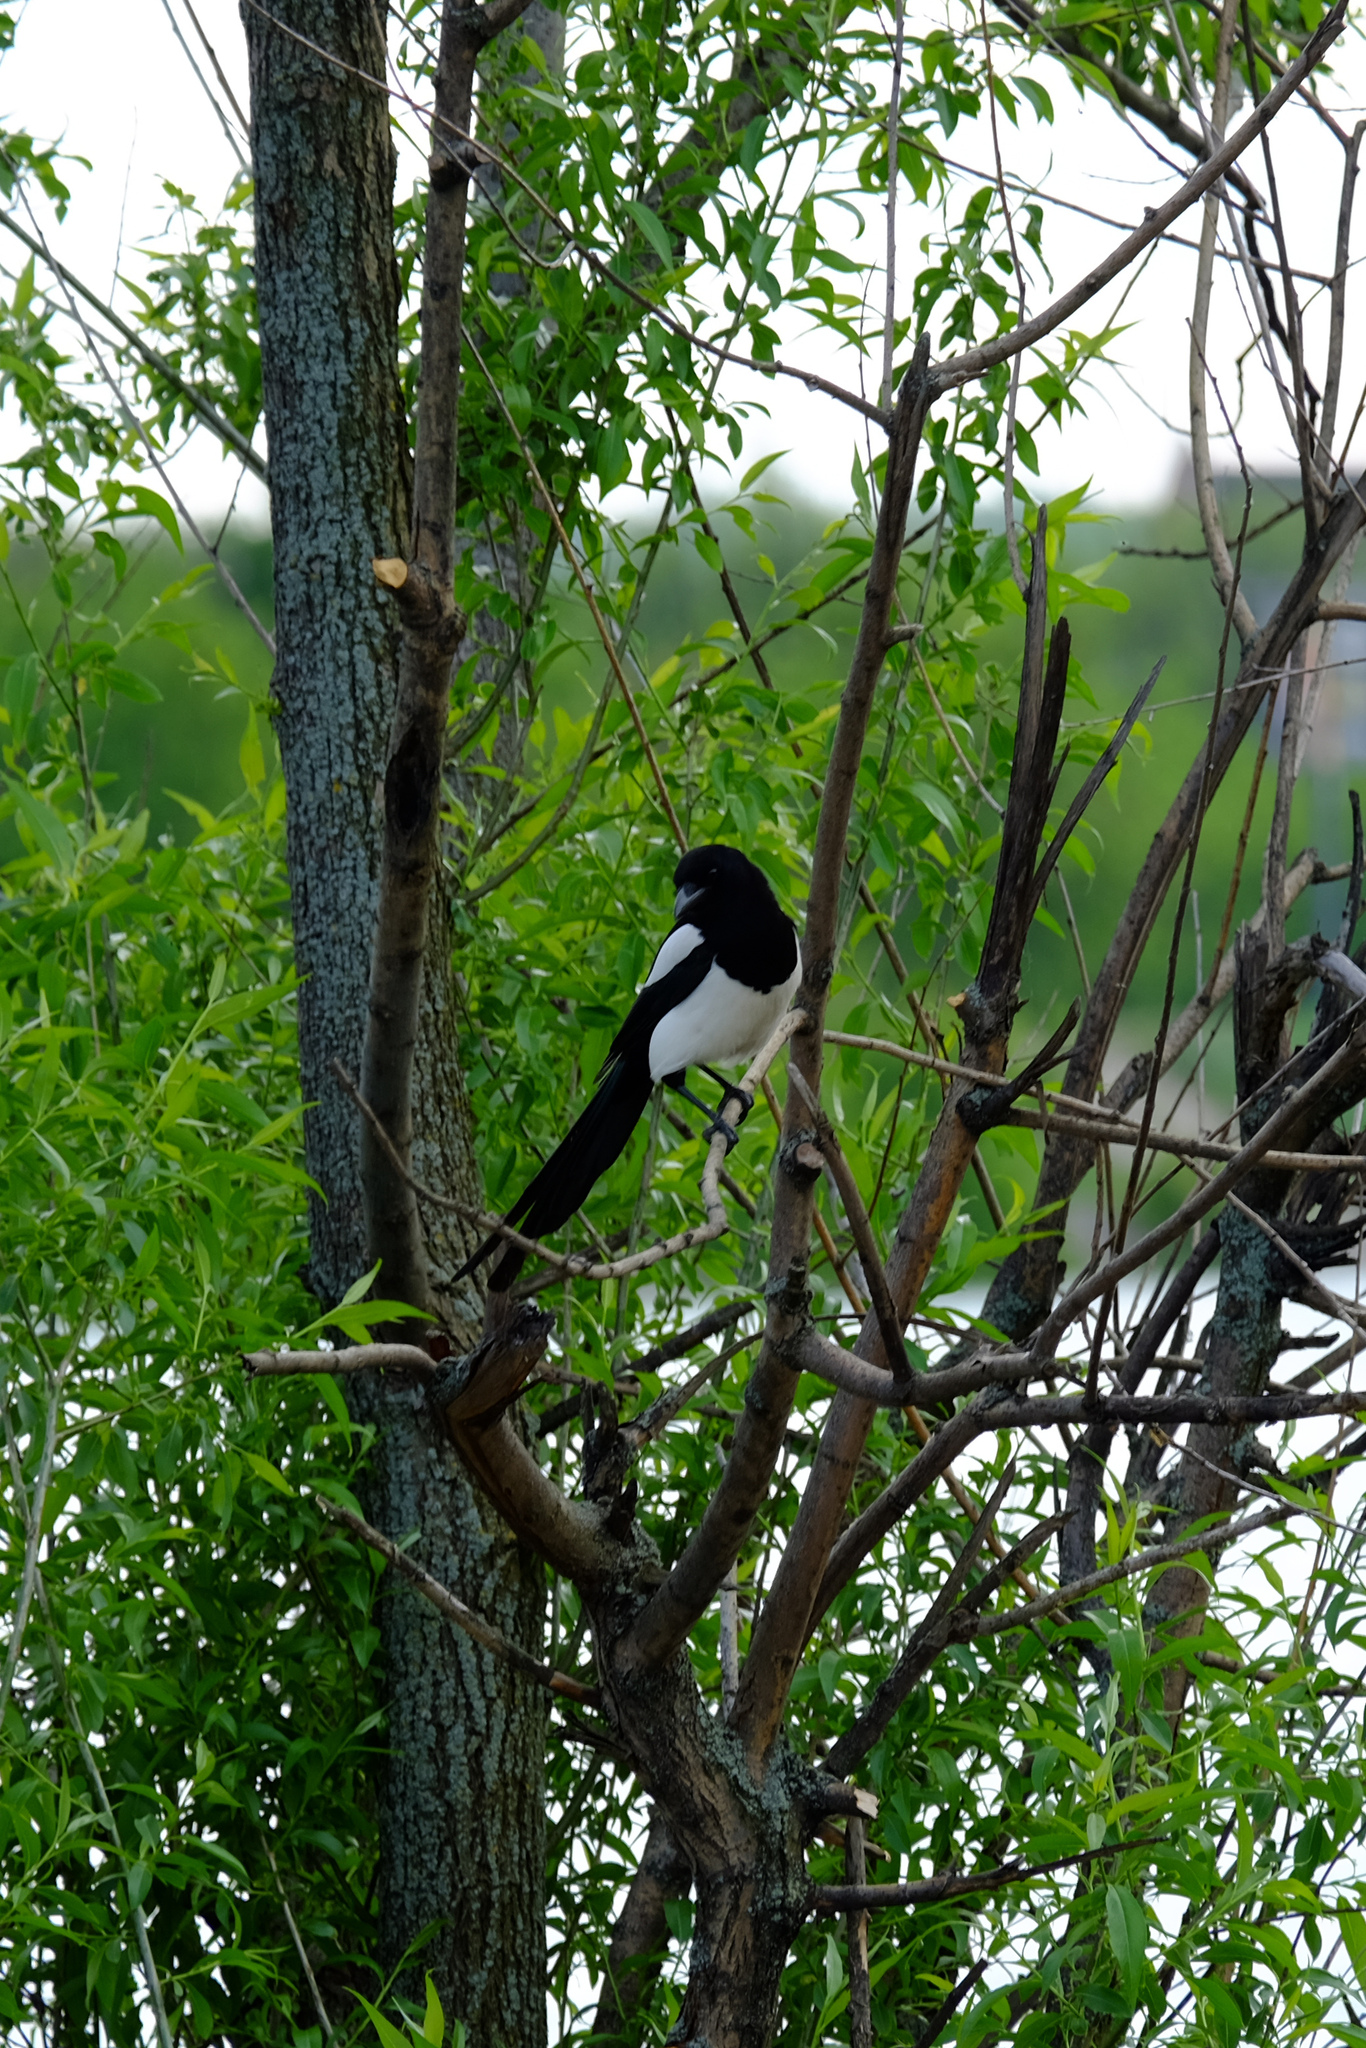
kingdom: Animalia
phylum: Chordata
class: Aves
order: Passeriformes
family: Corvidae
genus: Pica
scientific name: Pica pica
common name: Eurasian magpie
